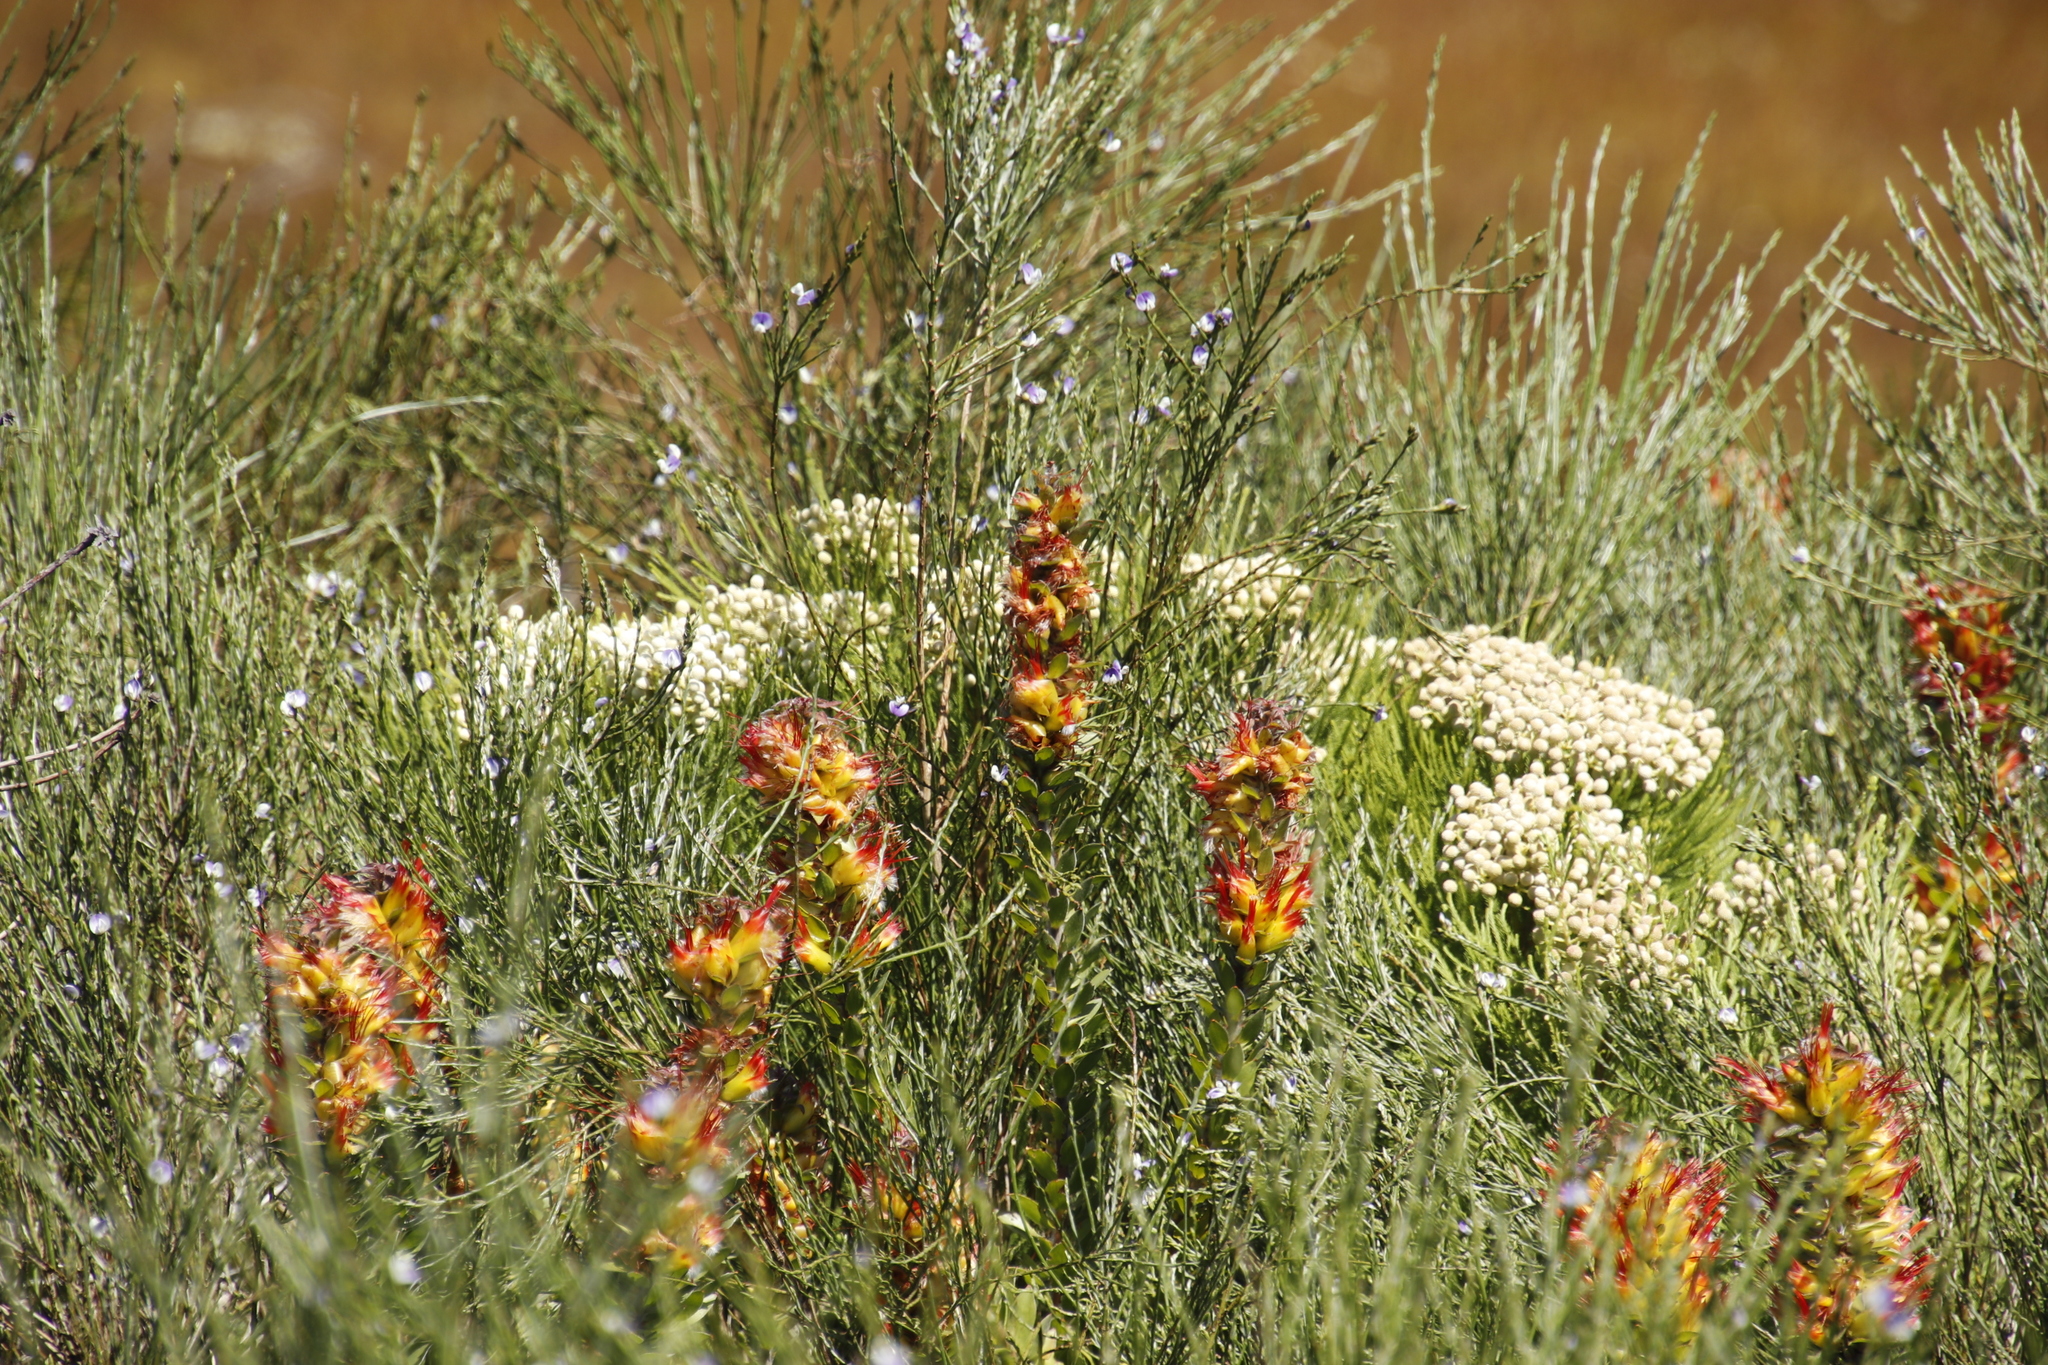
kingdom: Plantae
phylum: Tracheophyta
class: Magnoliopsida
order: Proteales
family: Proteaceae
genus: Mimetes
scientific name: Mimetes hirtus
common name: Marsh pagoda
